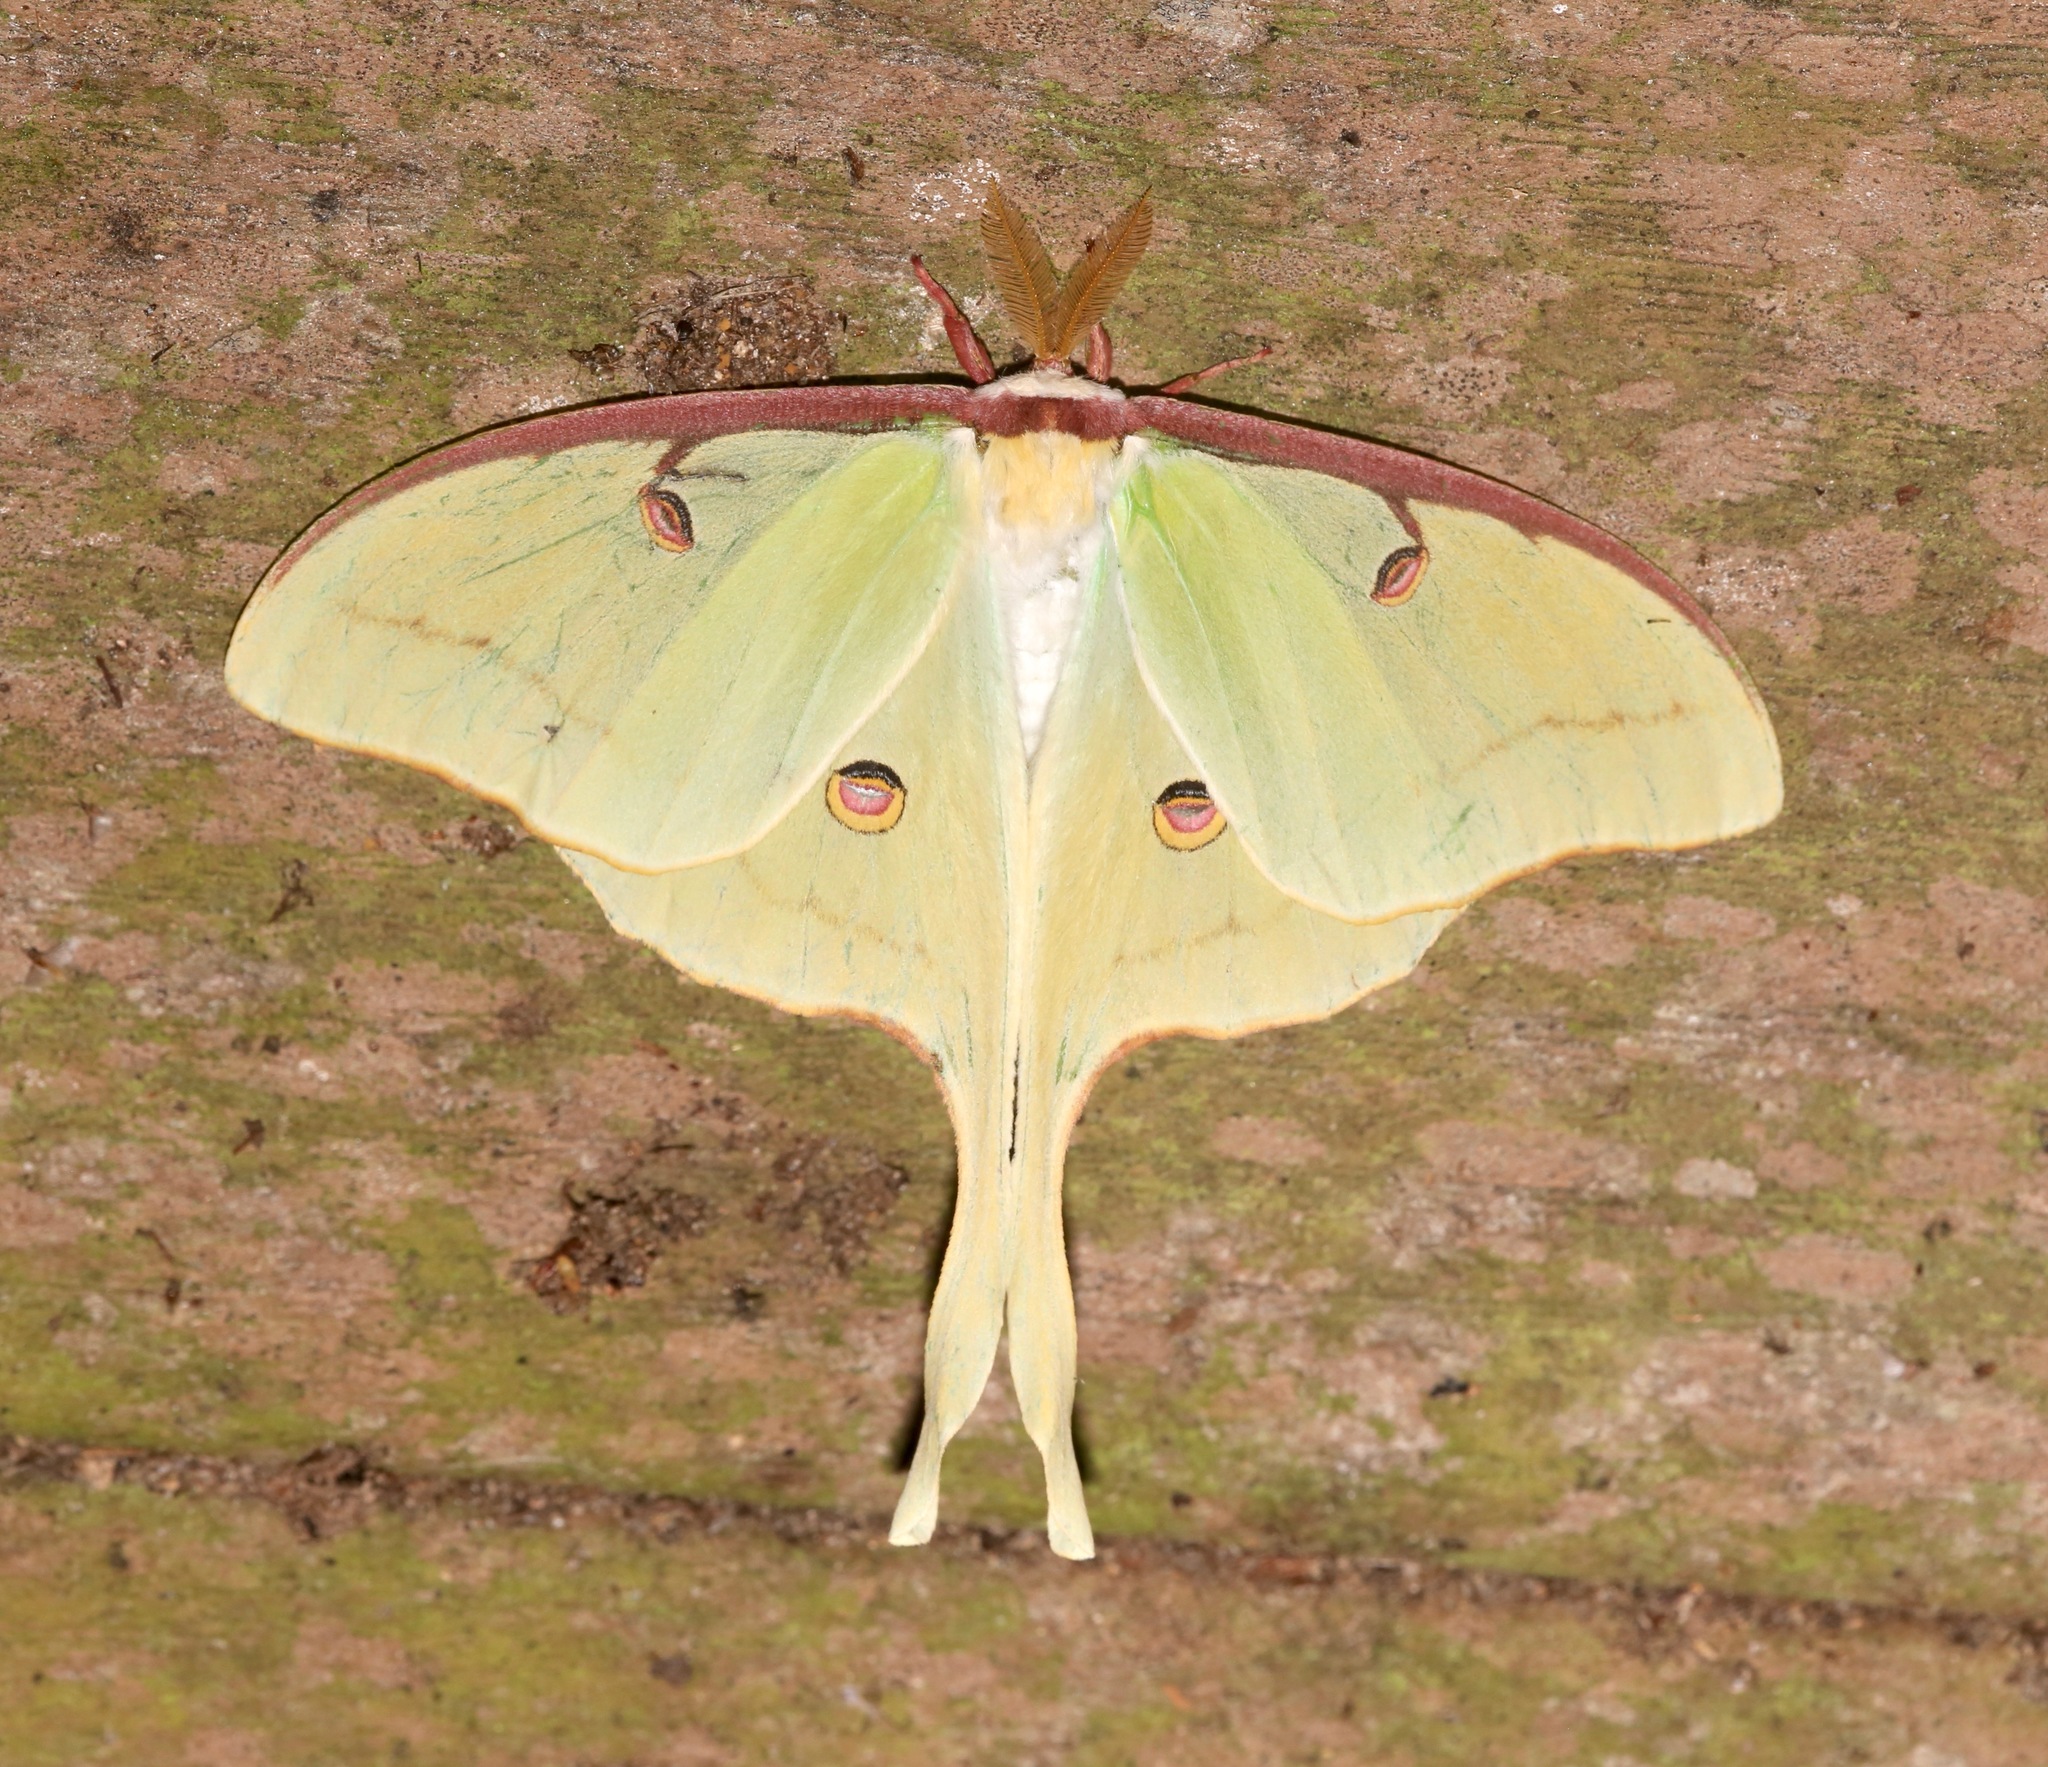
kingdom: Animalia
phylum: Arthropoda
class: Insecta
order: Lepidoptera
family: Saturniidae
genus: Actias
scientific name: Actias luna
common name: Luna moth
